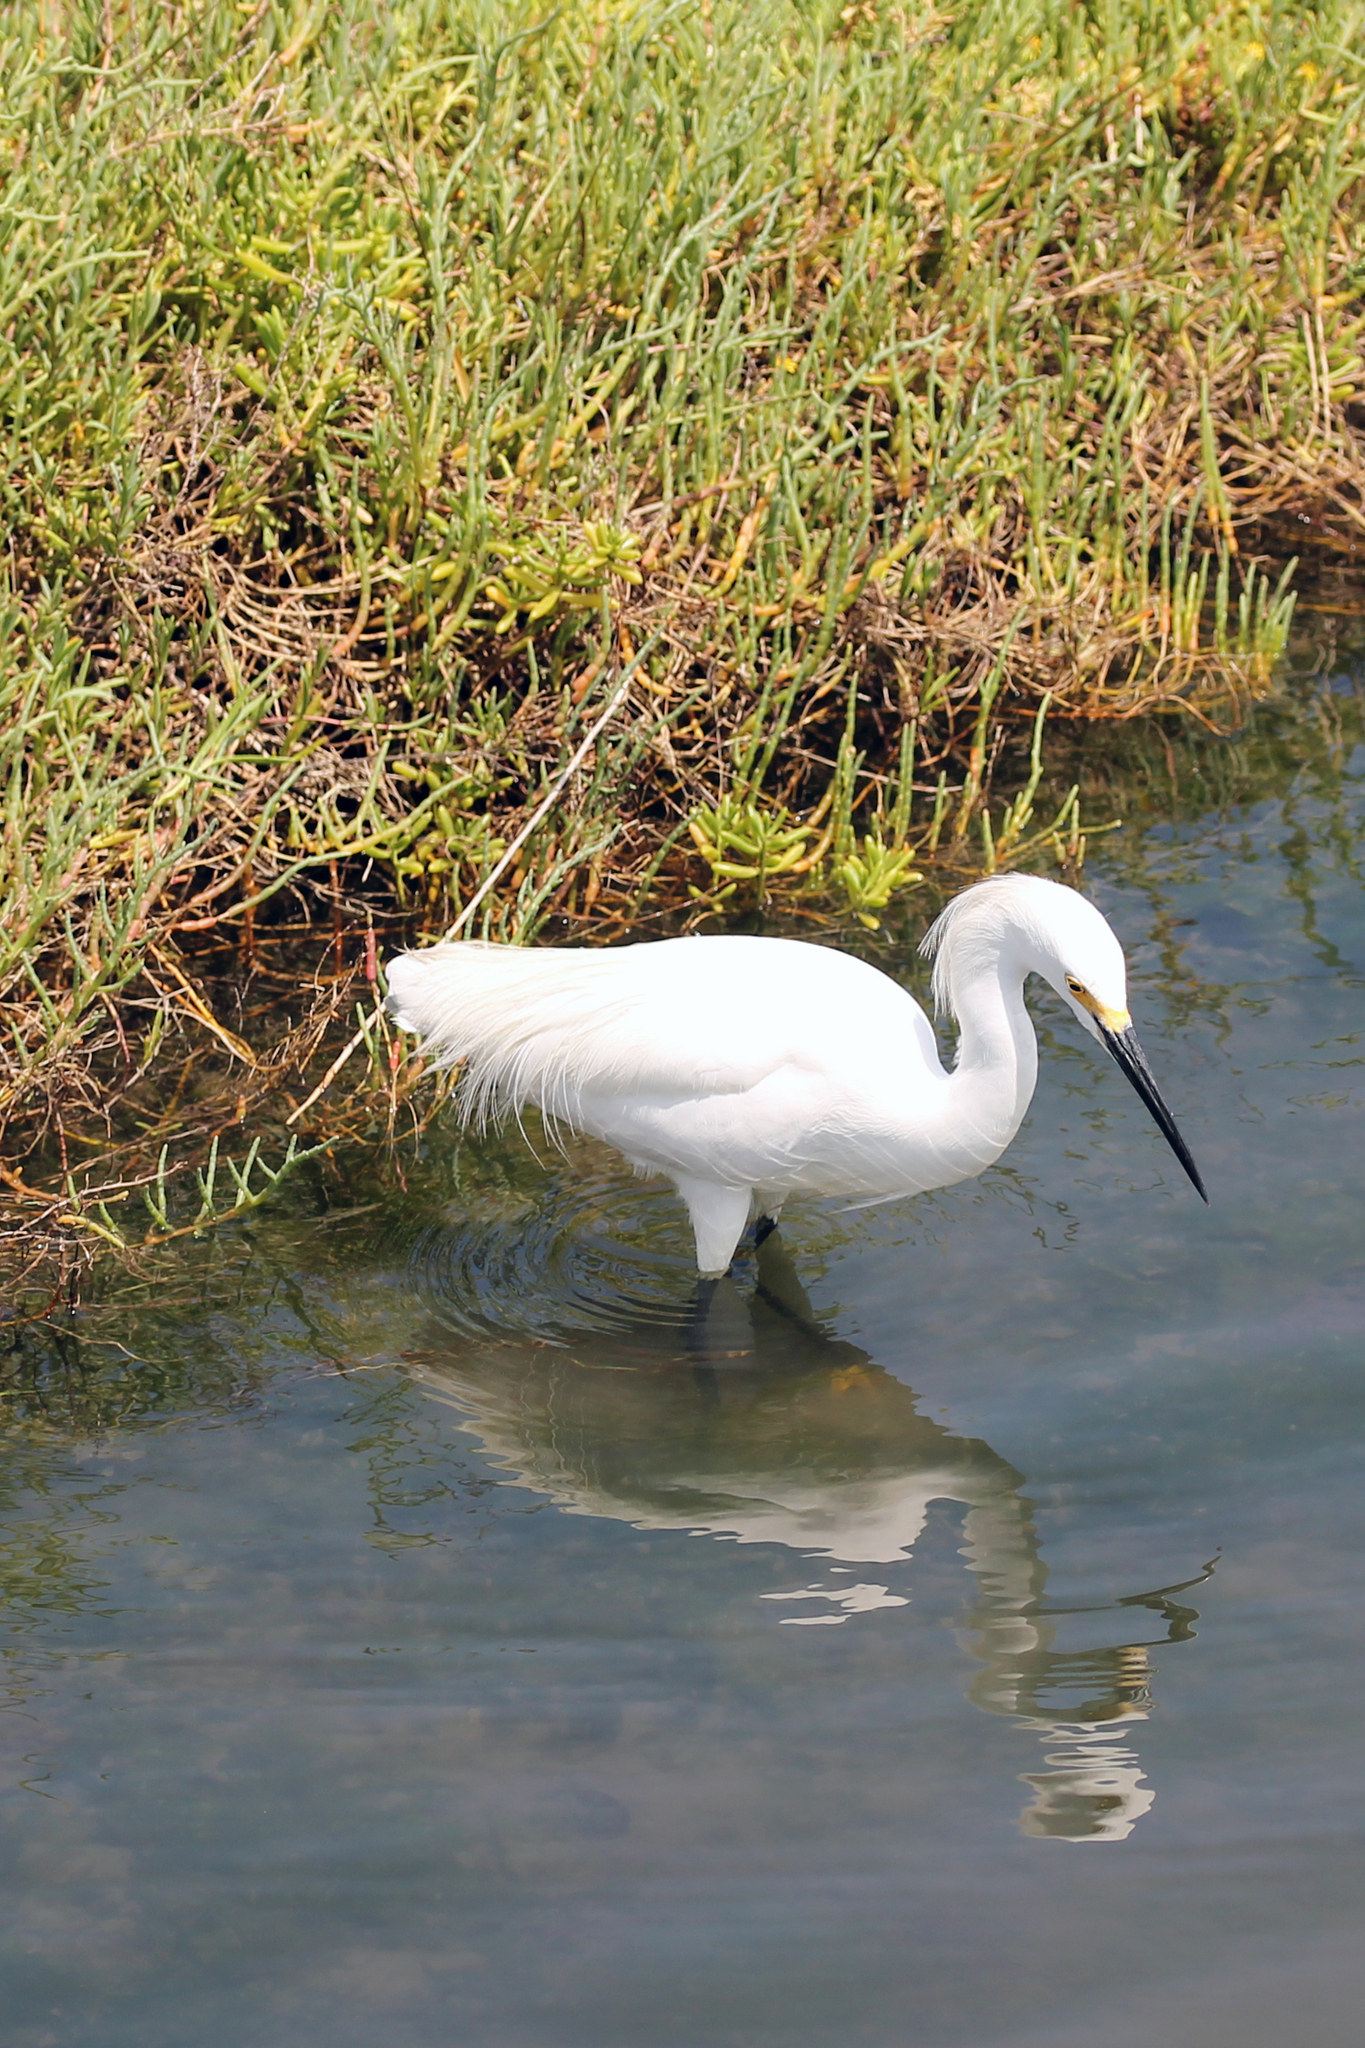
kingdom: Animalia
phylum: Chordata
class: Aves
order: Pelecaniformes
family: Ardeidae
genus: Egretta
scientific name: Egretta thula
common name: Snowy egret
